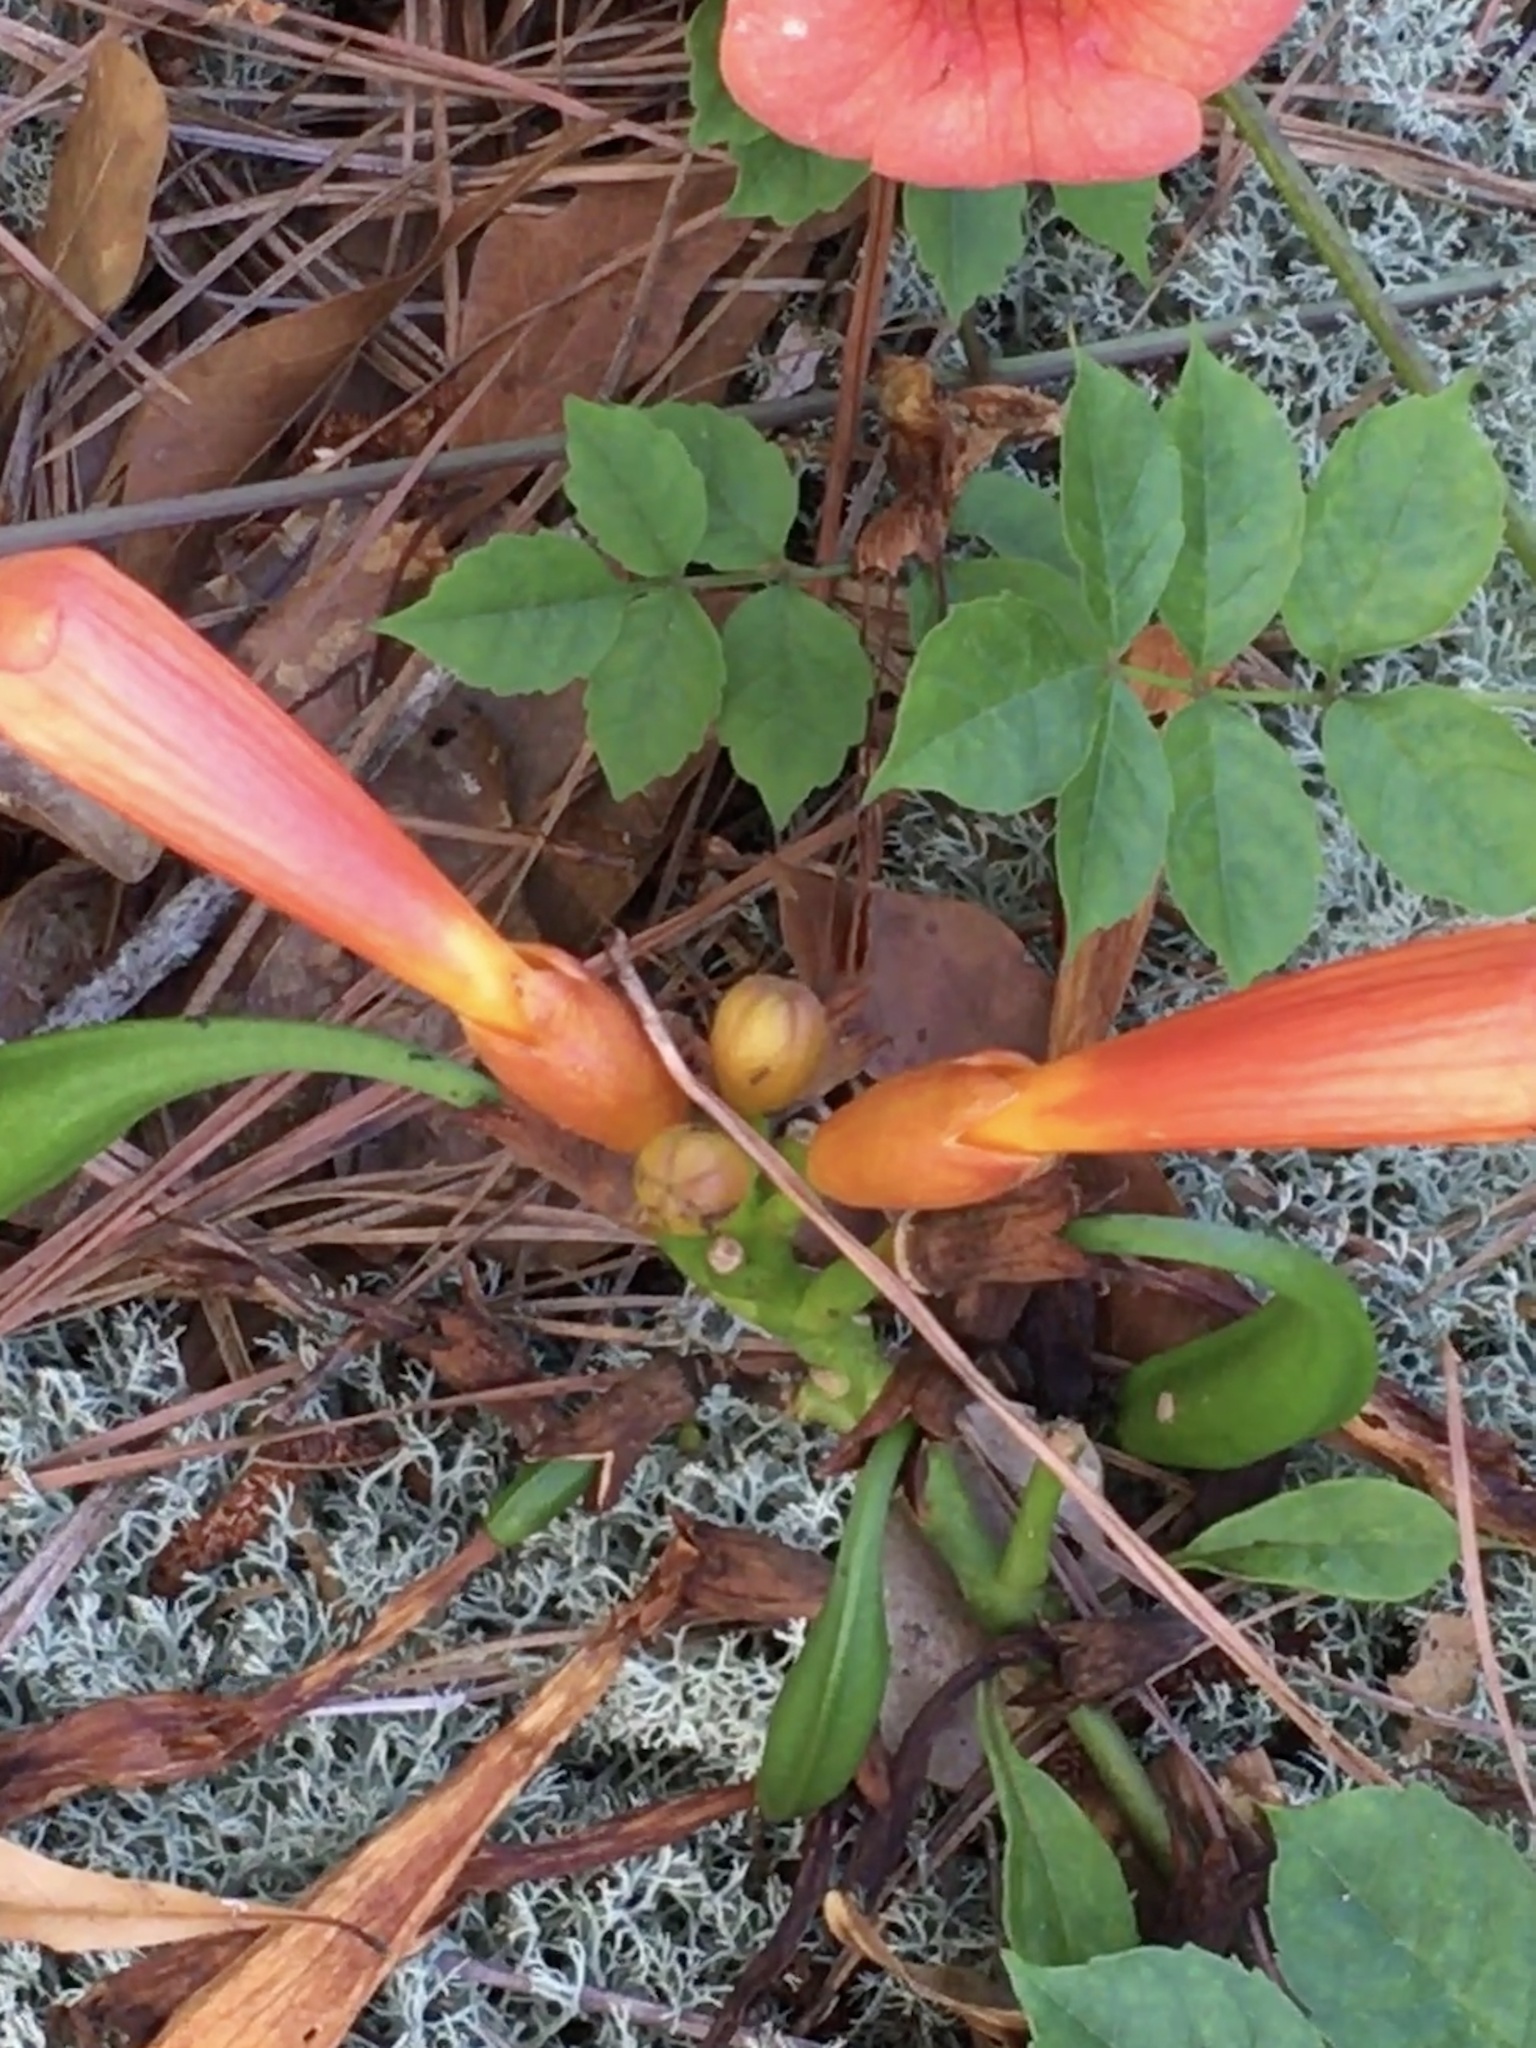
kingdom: Plantae
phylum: Tracheophyta
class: Magnoliopsida
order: Lamiales
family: Bignoniaceae
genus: Campsis
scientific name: Campsis radicans
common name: Trumpet-creeper
